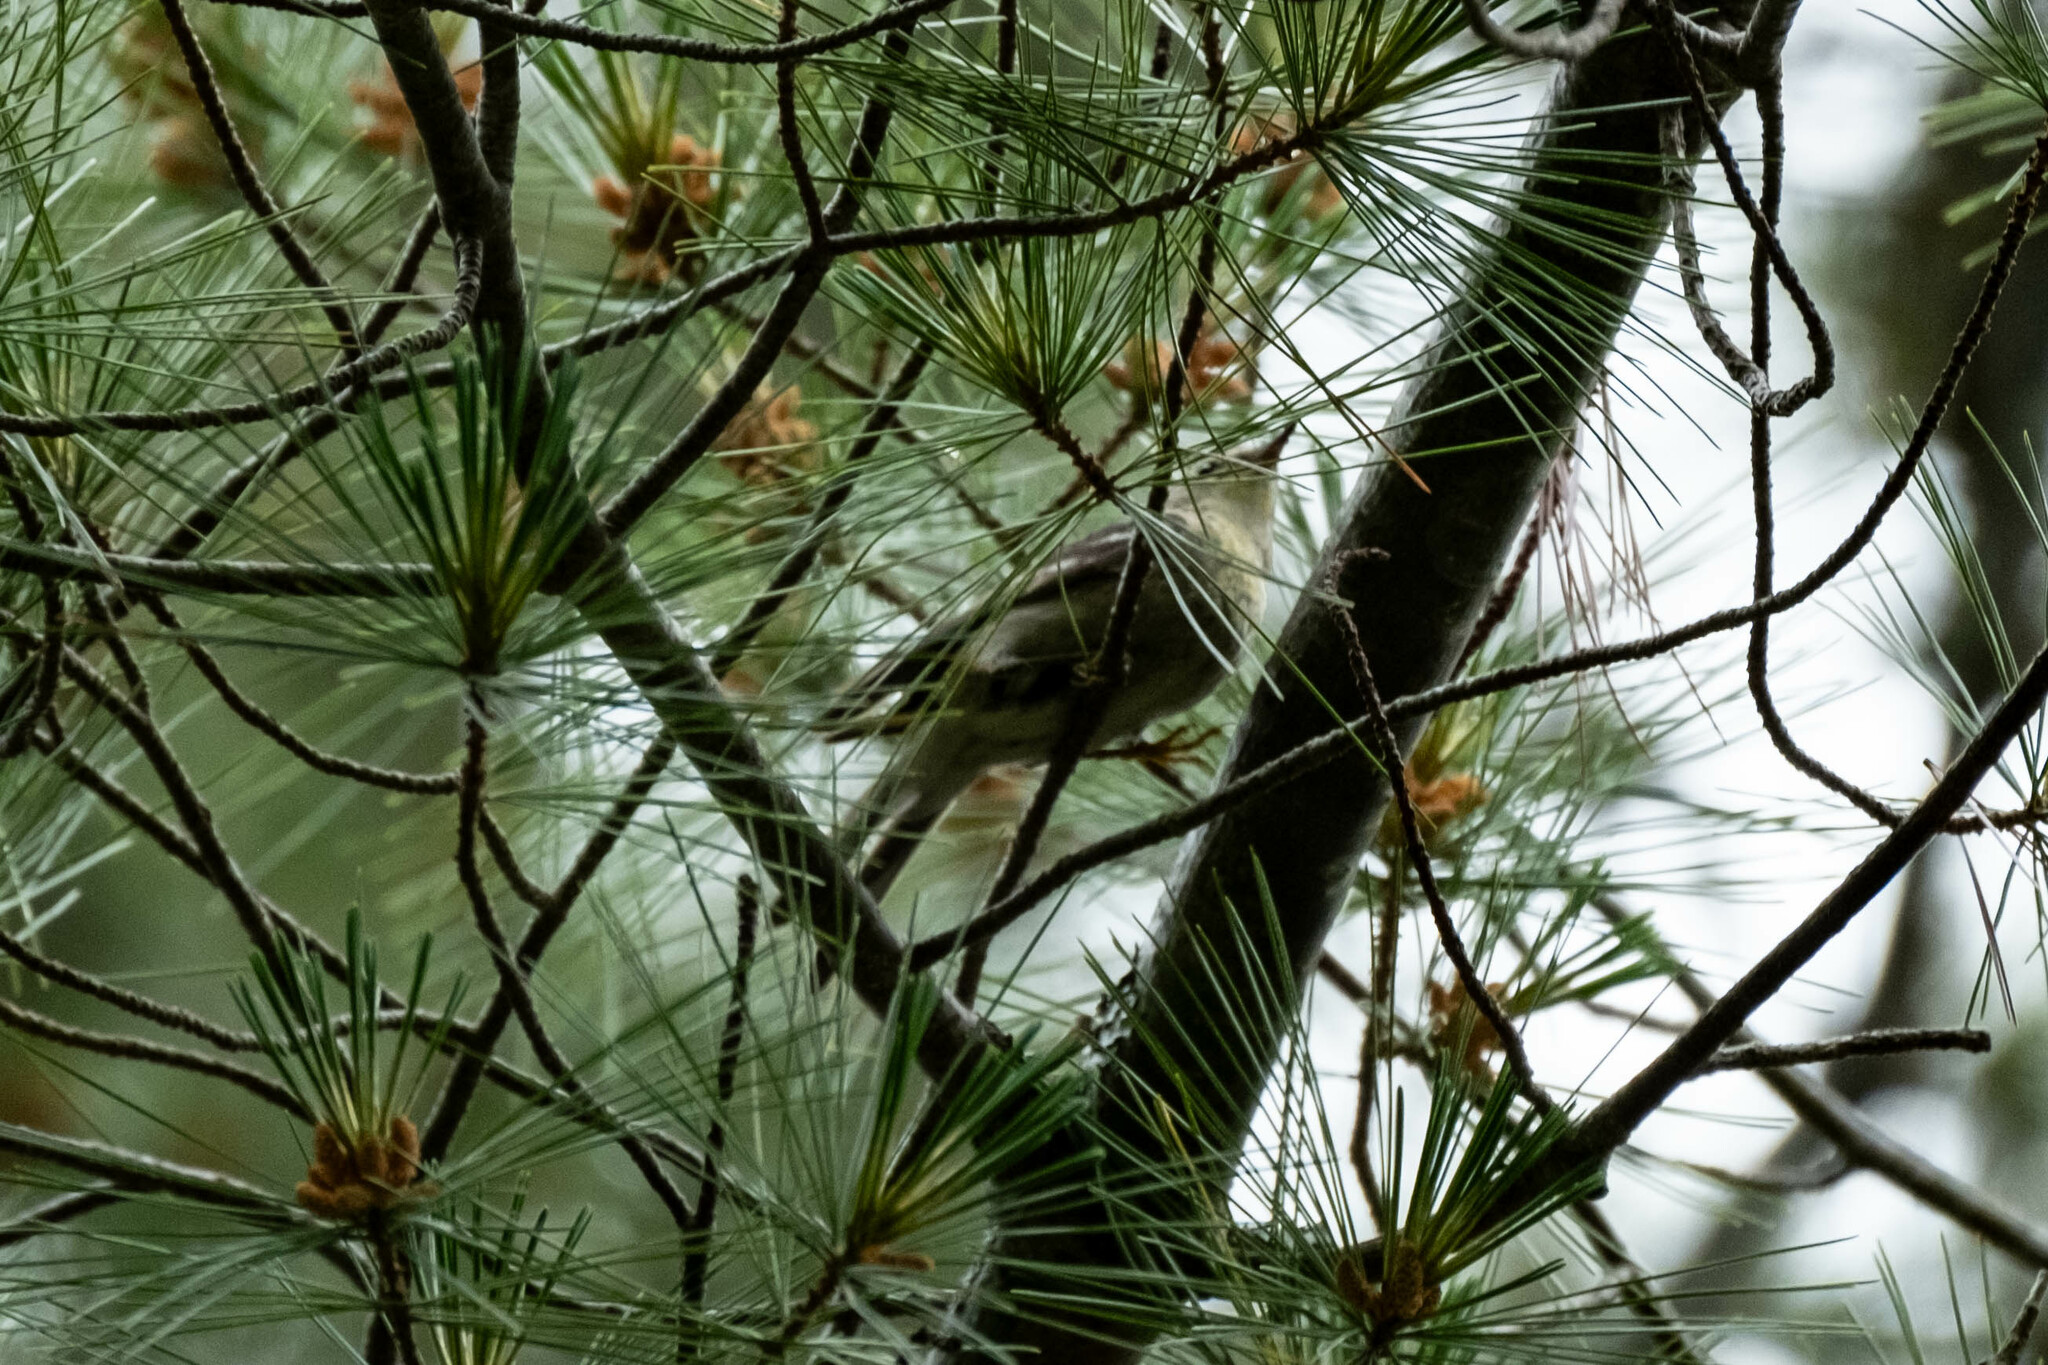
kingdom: Animalia
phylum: Chordata
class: Aves
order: Passeriformes
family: Parulidae
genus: Setophaga
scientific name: Setophaga pinus
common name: Pine warbler
